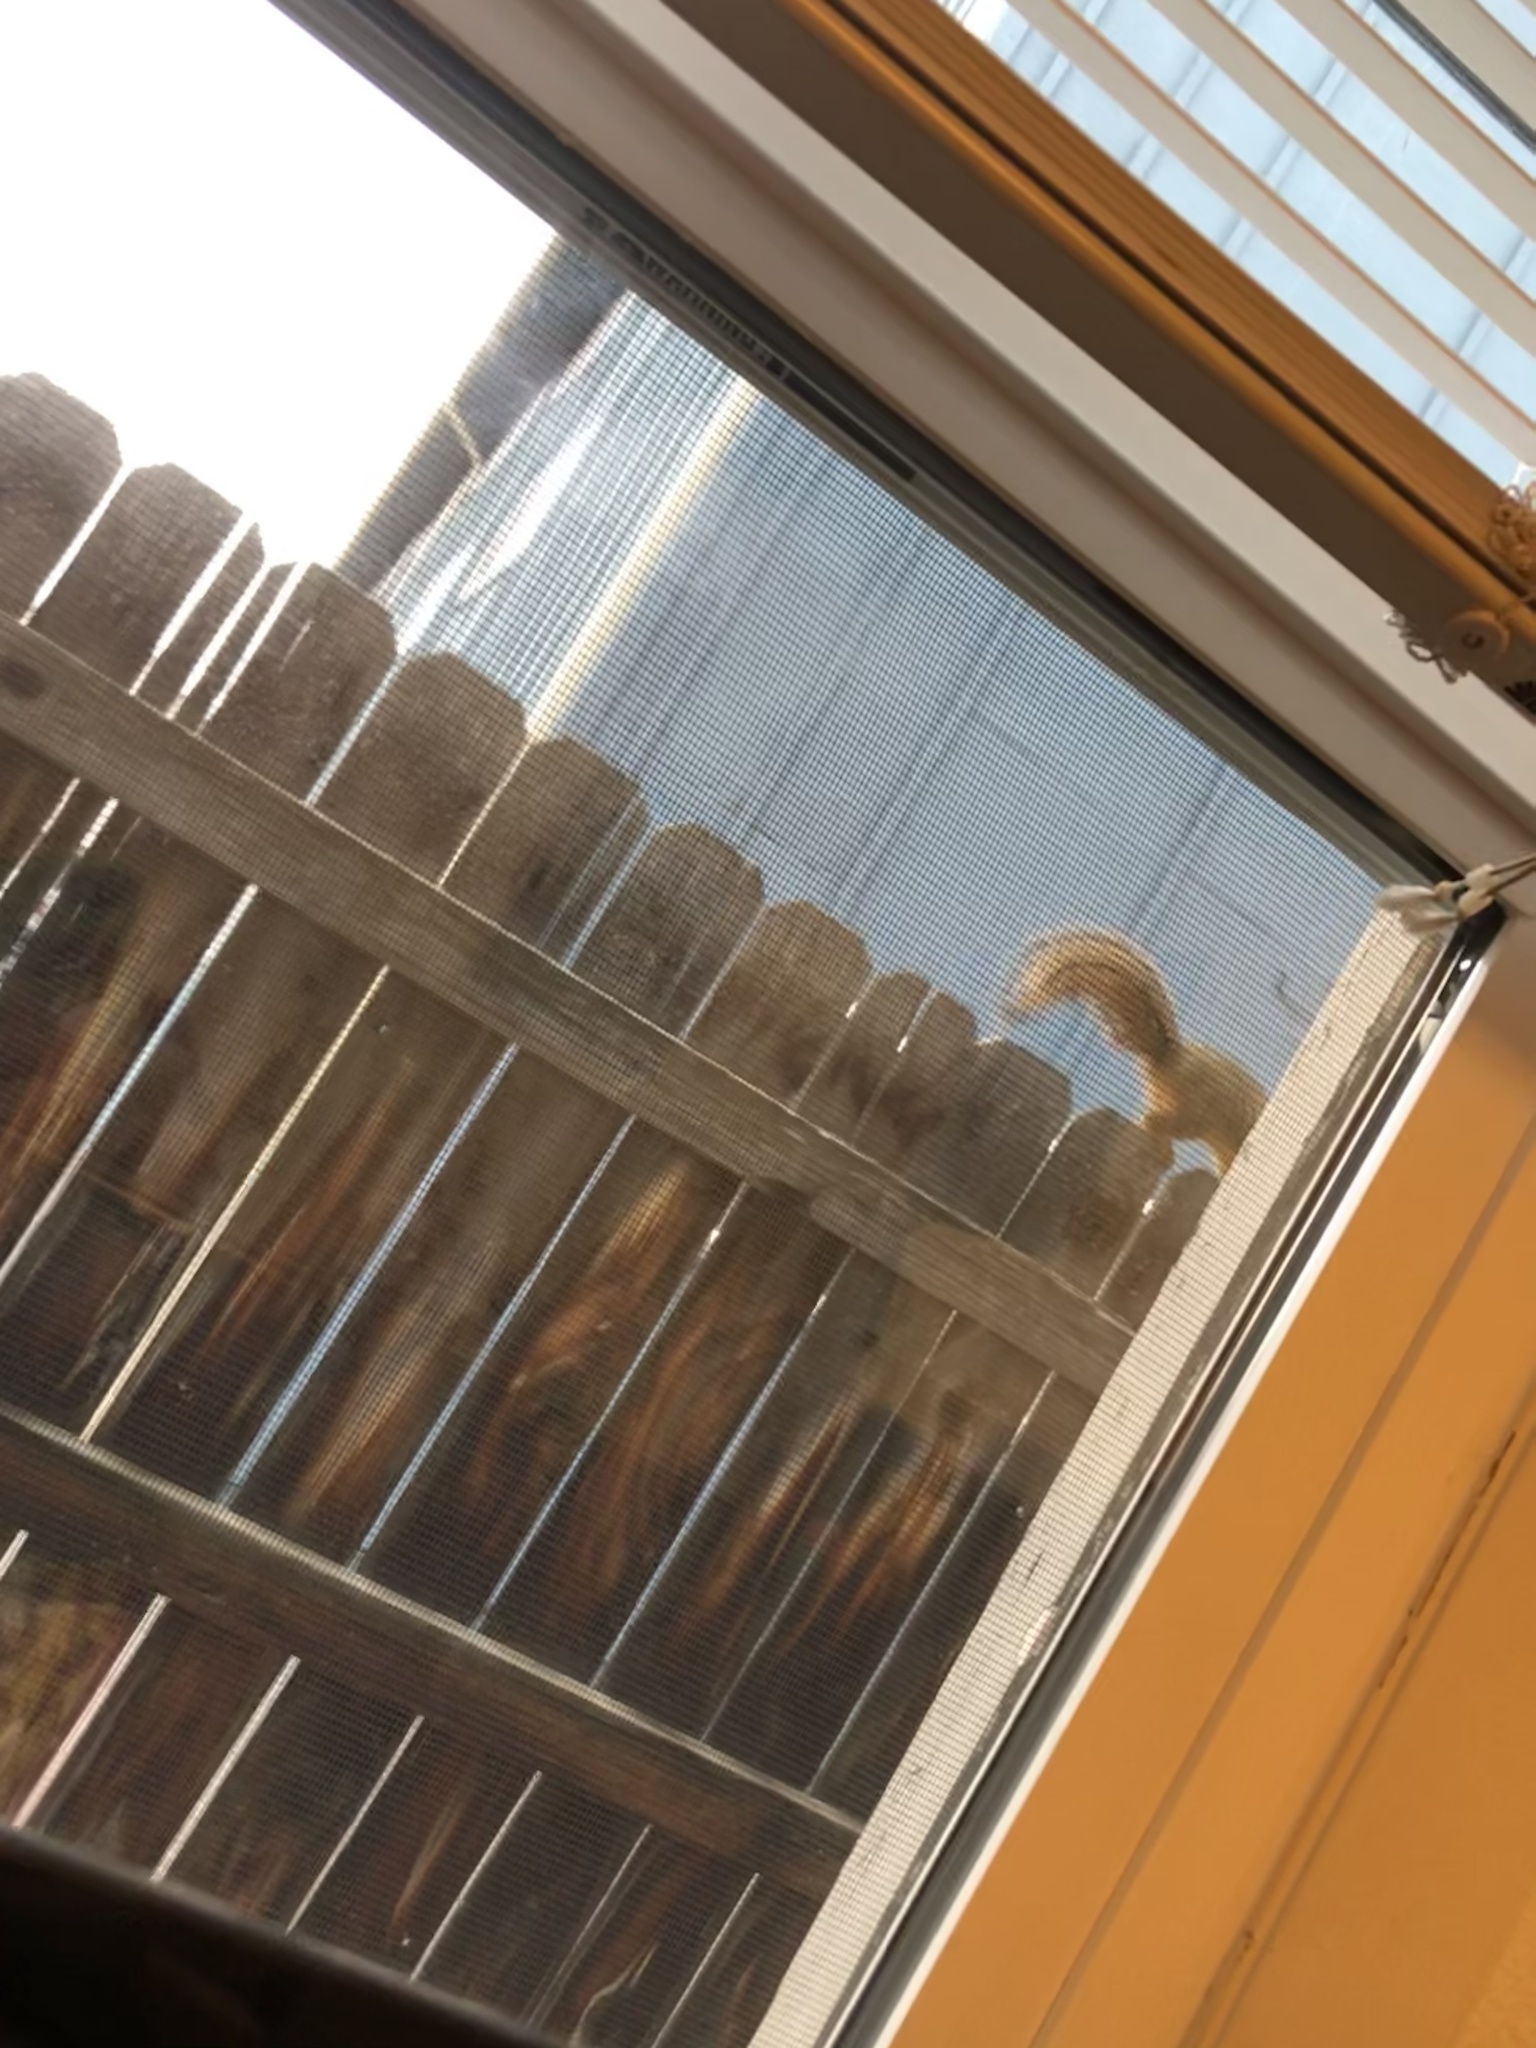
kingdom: Animalia
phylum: Chordata
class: Mammalia
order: Rodentia
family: Sciuridae
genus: Sciurus
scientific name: Sciurus niger
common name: Fox squirrel
